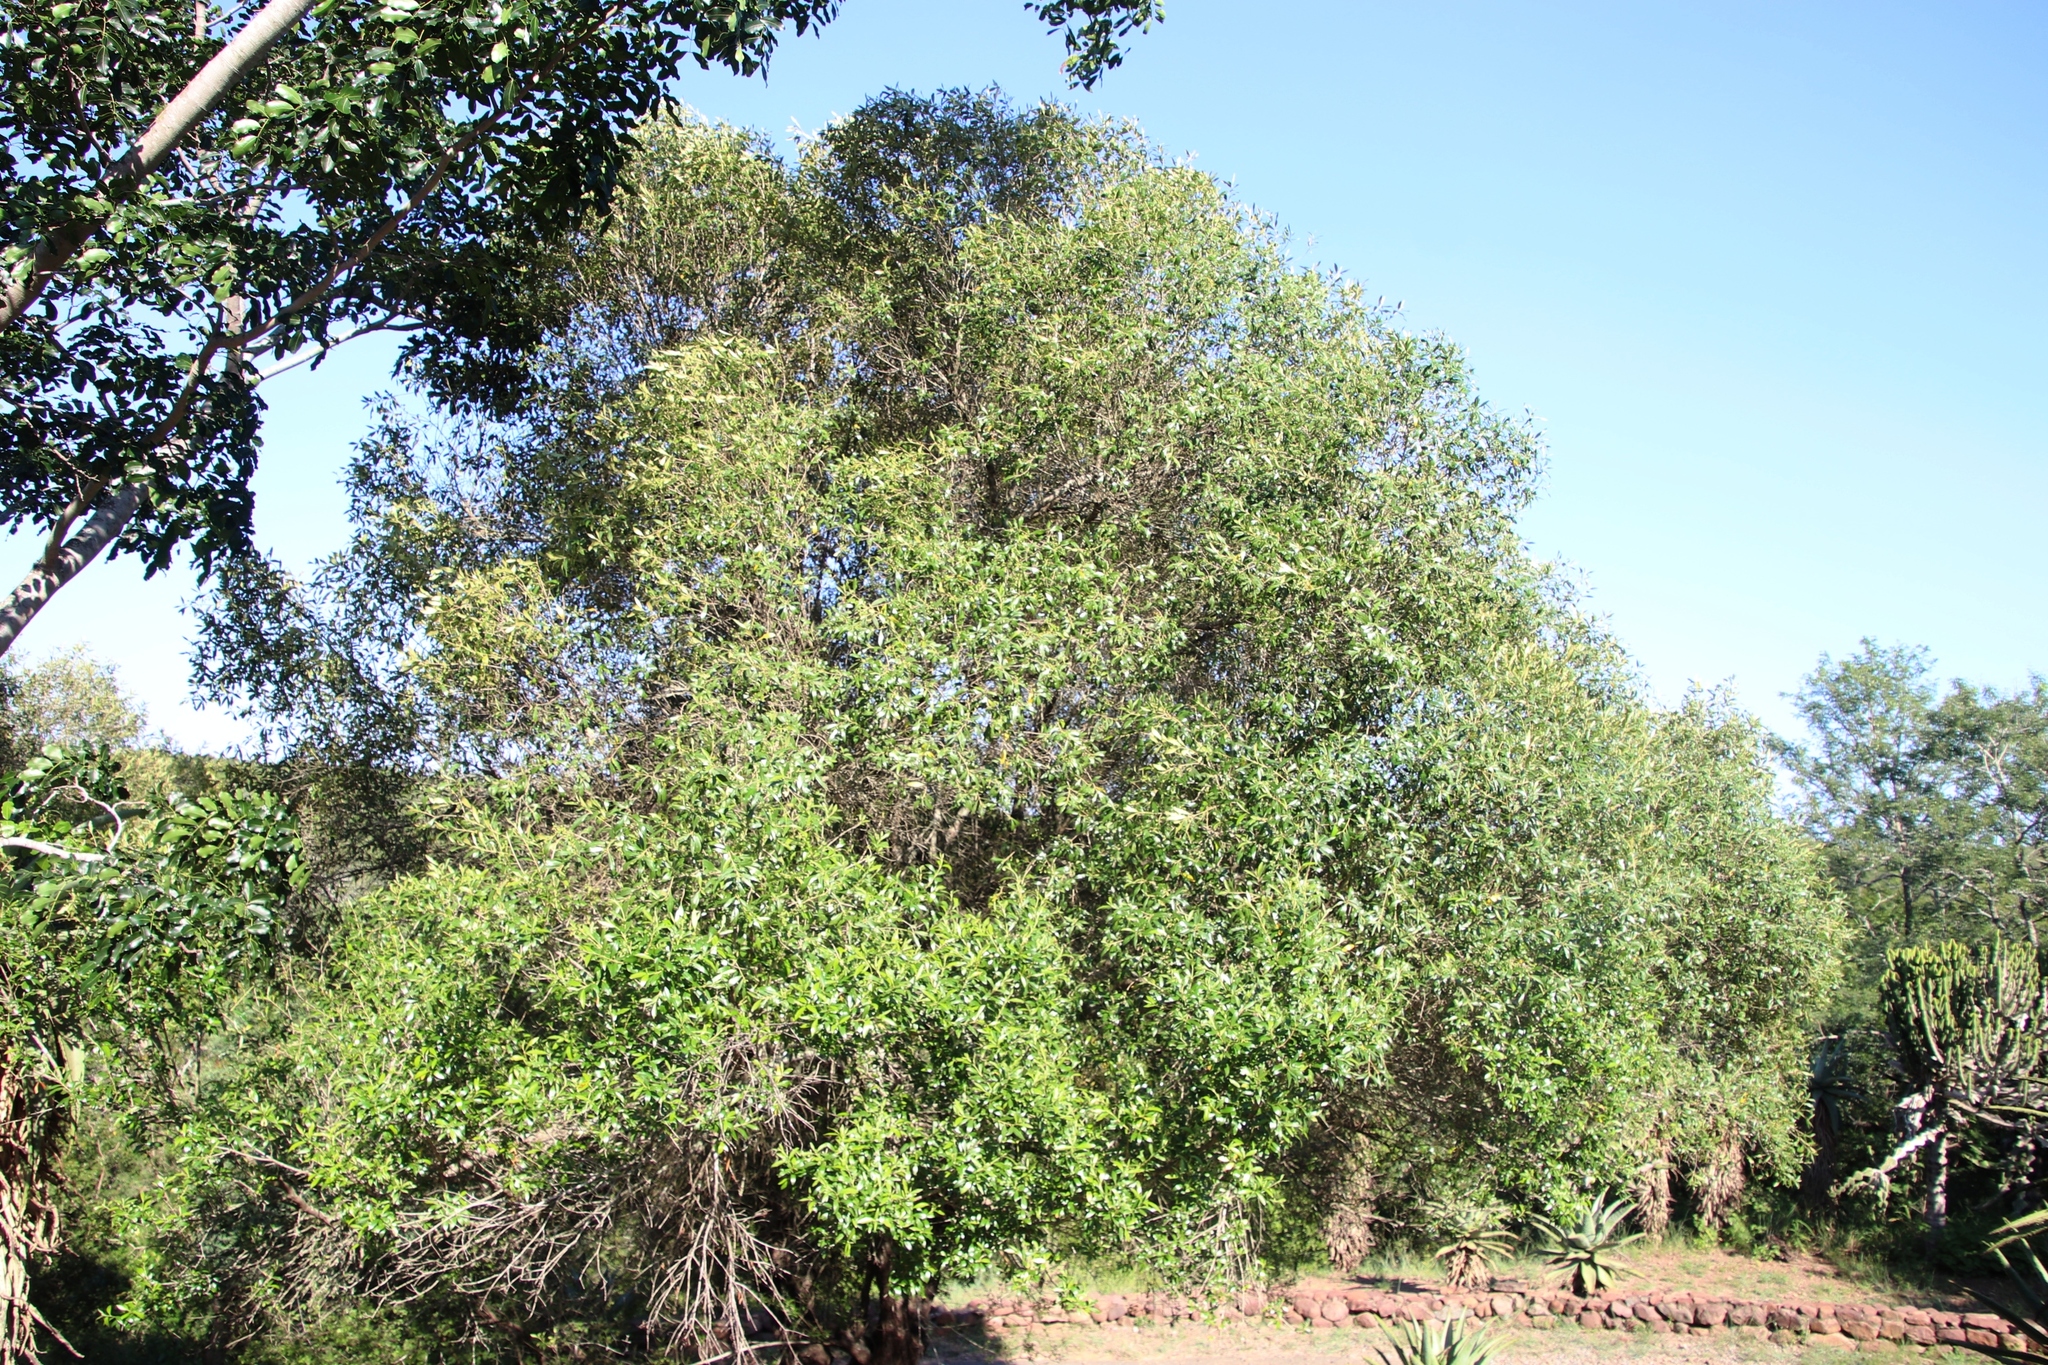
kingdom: Plantae
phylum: Tracheophyta
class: Magnoliopsida
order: Lamiales
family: Oleaceae
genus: Olea
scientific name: Olea europaea
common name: Olive
